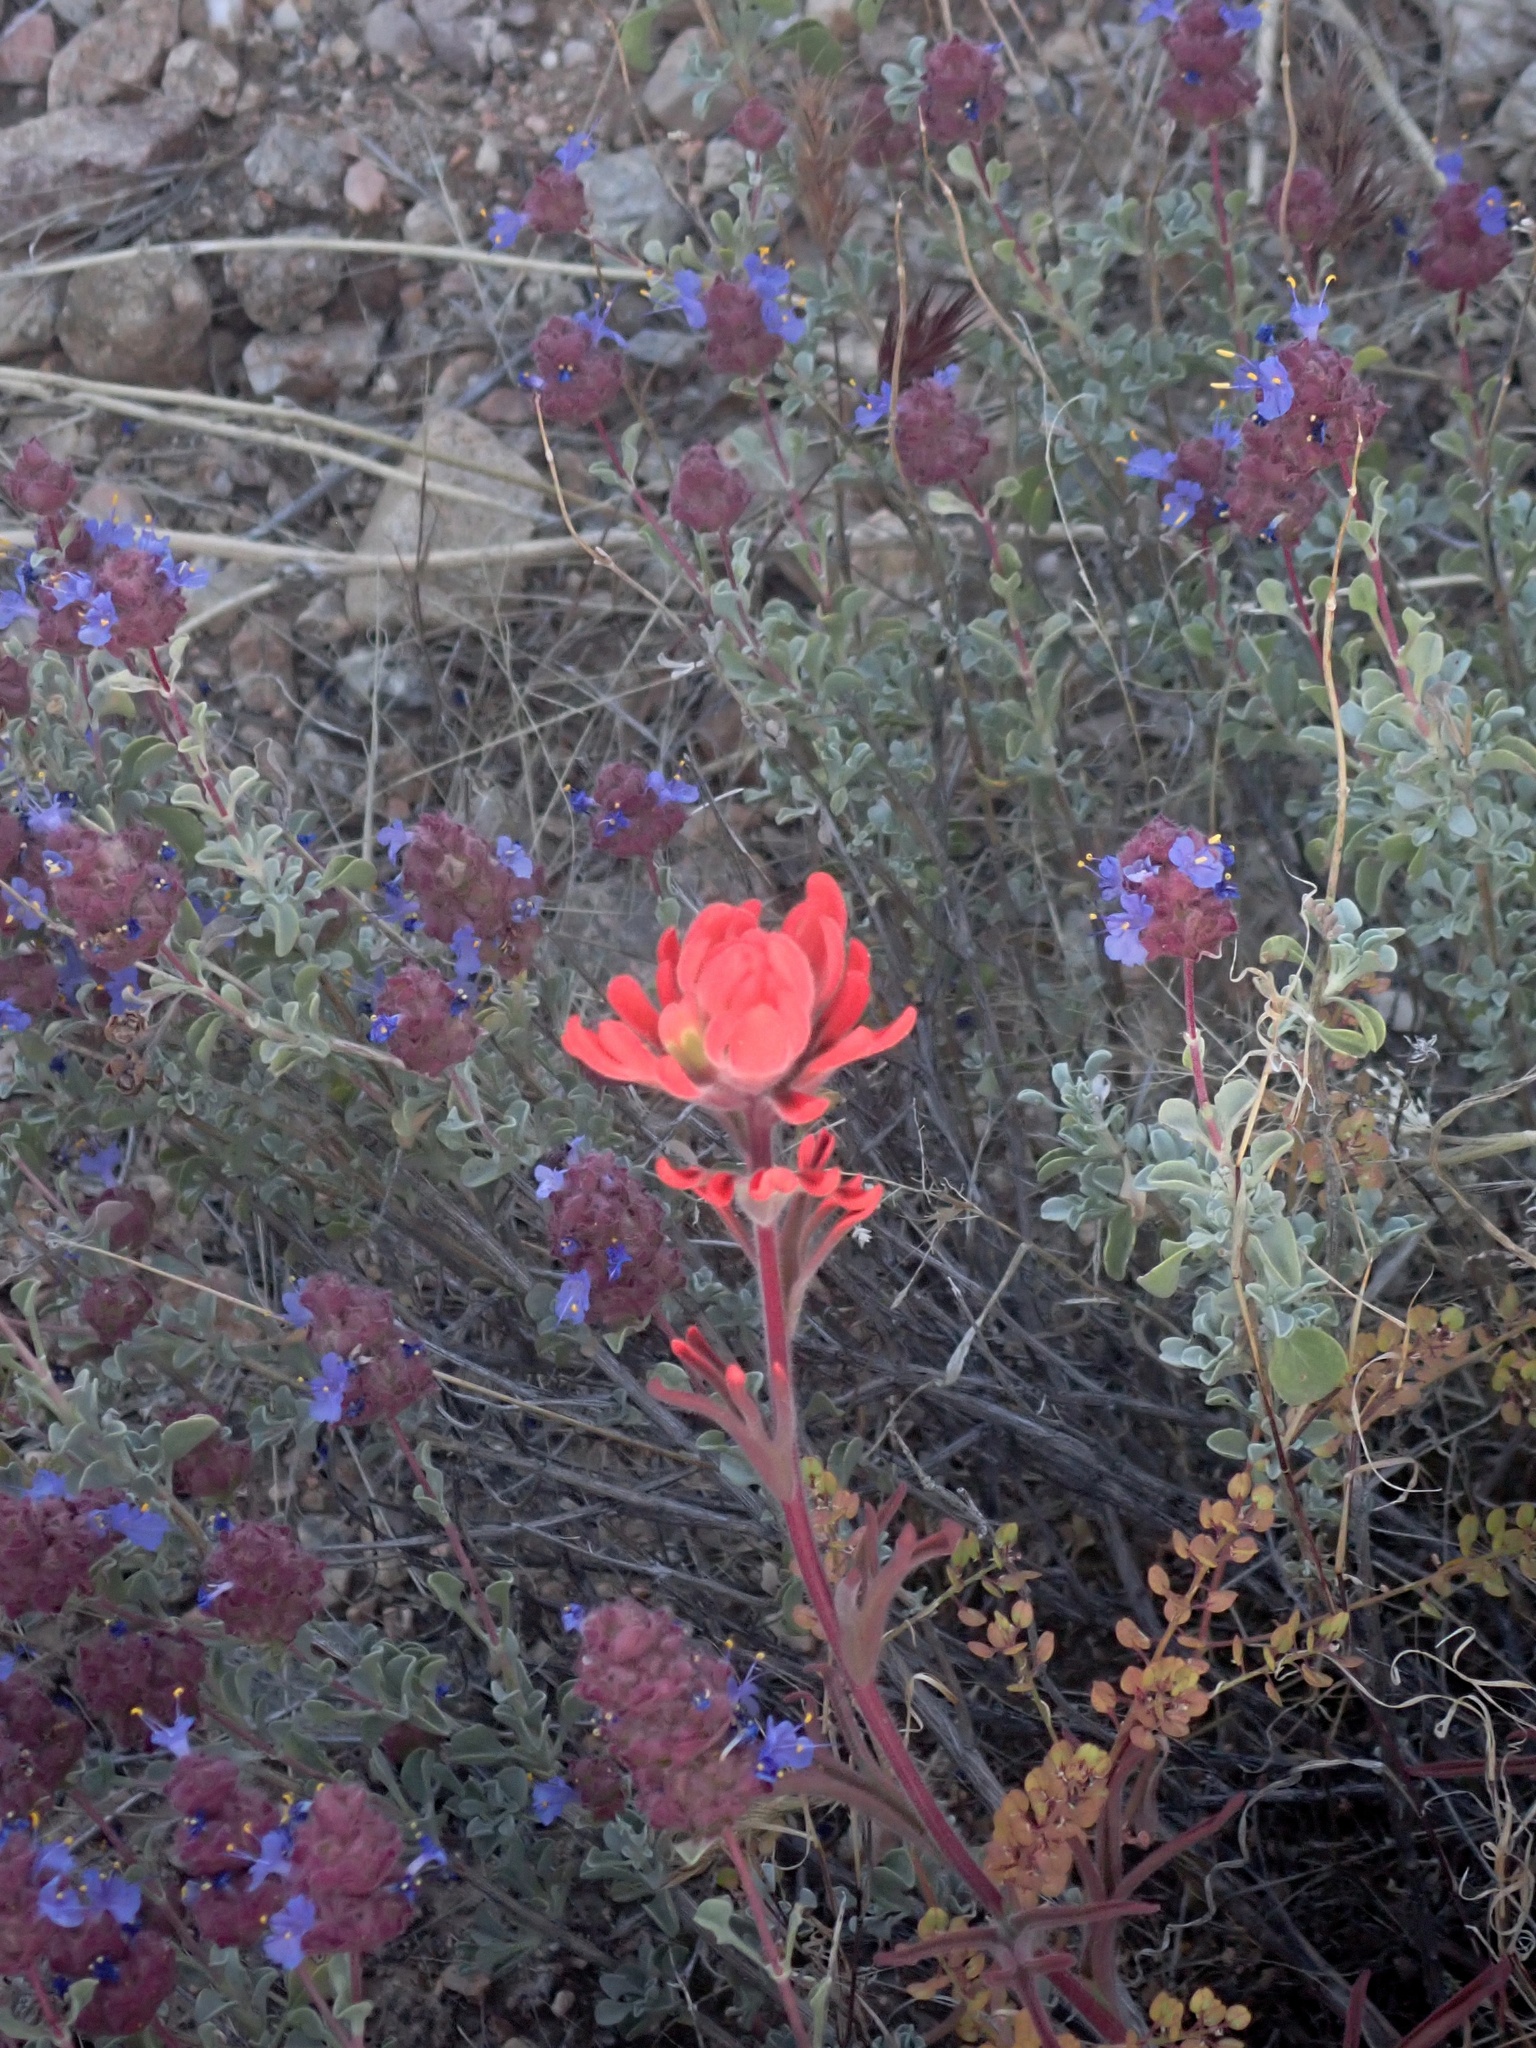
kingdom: Plantae
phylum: Tracheophyta
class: Magnoliopsida
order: Lamiales
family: Orobanchaceae
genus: Castilleja
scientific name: Castilleja chromosa
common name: Desert paintbrush
